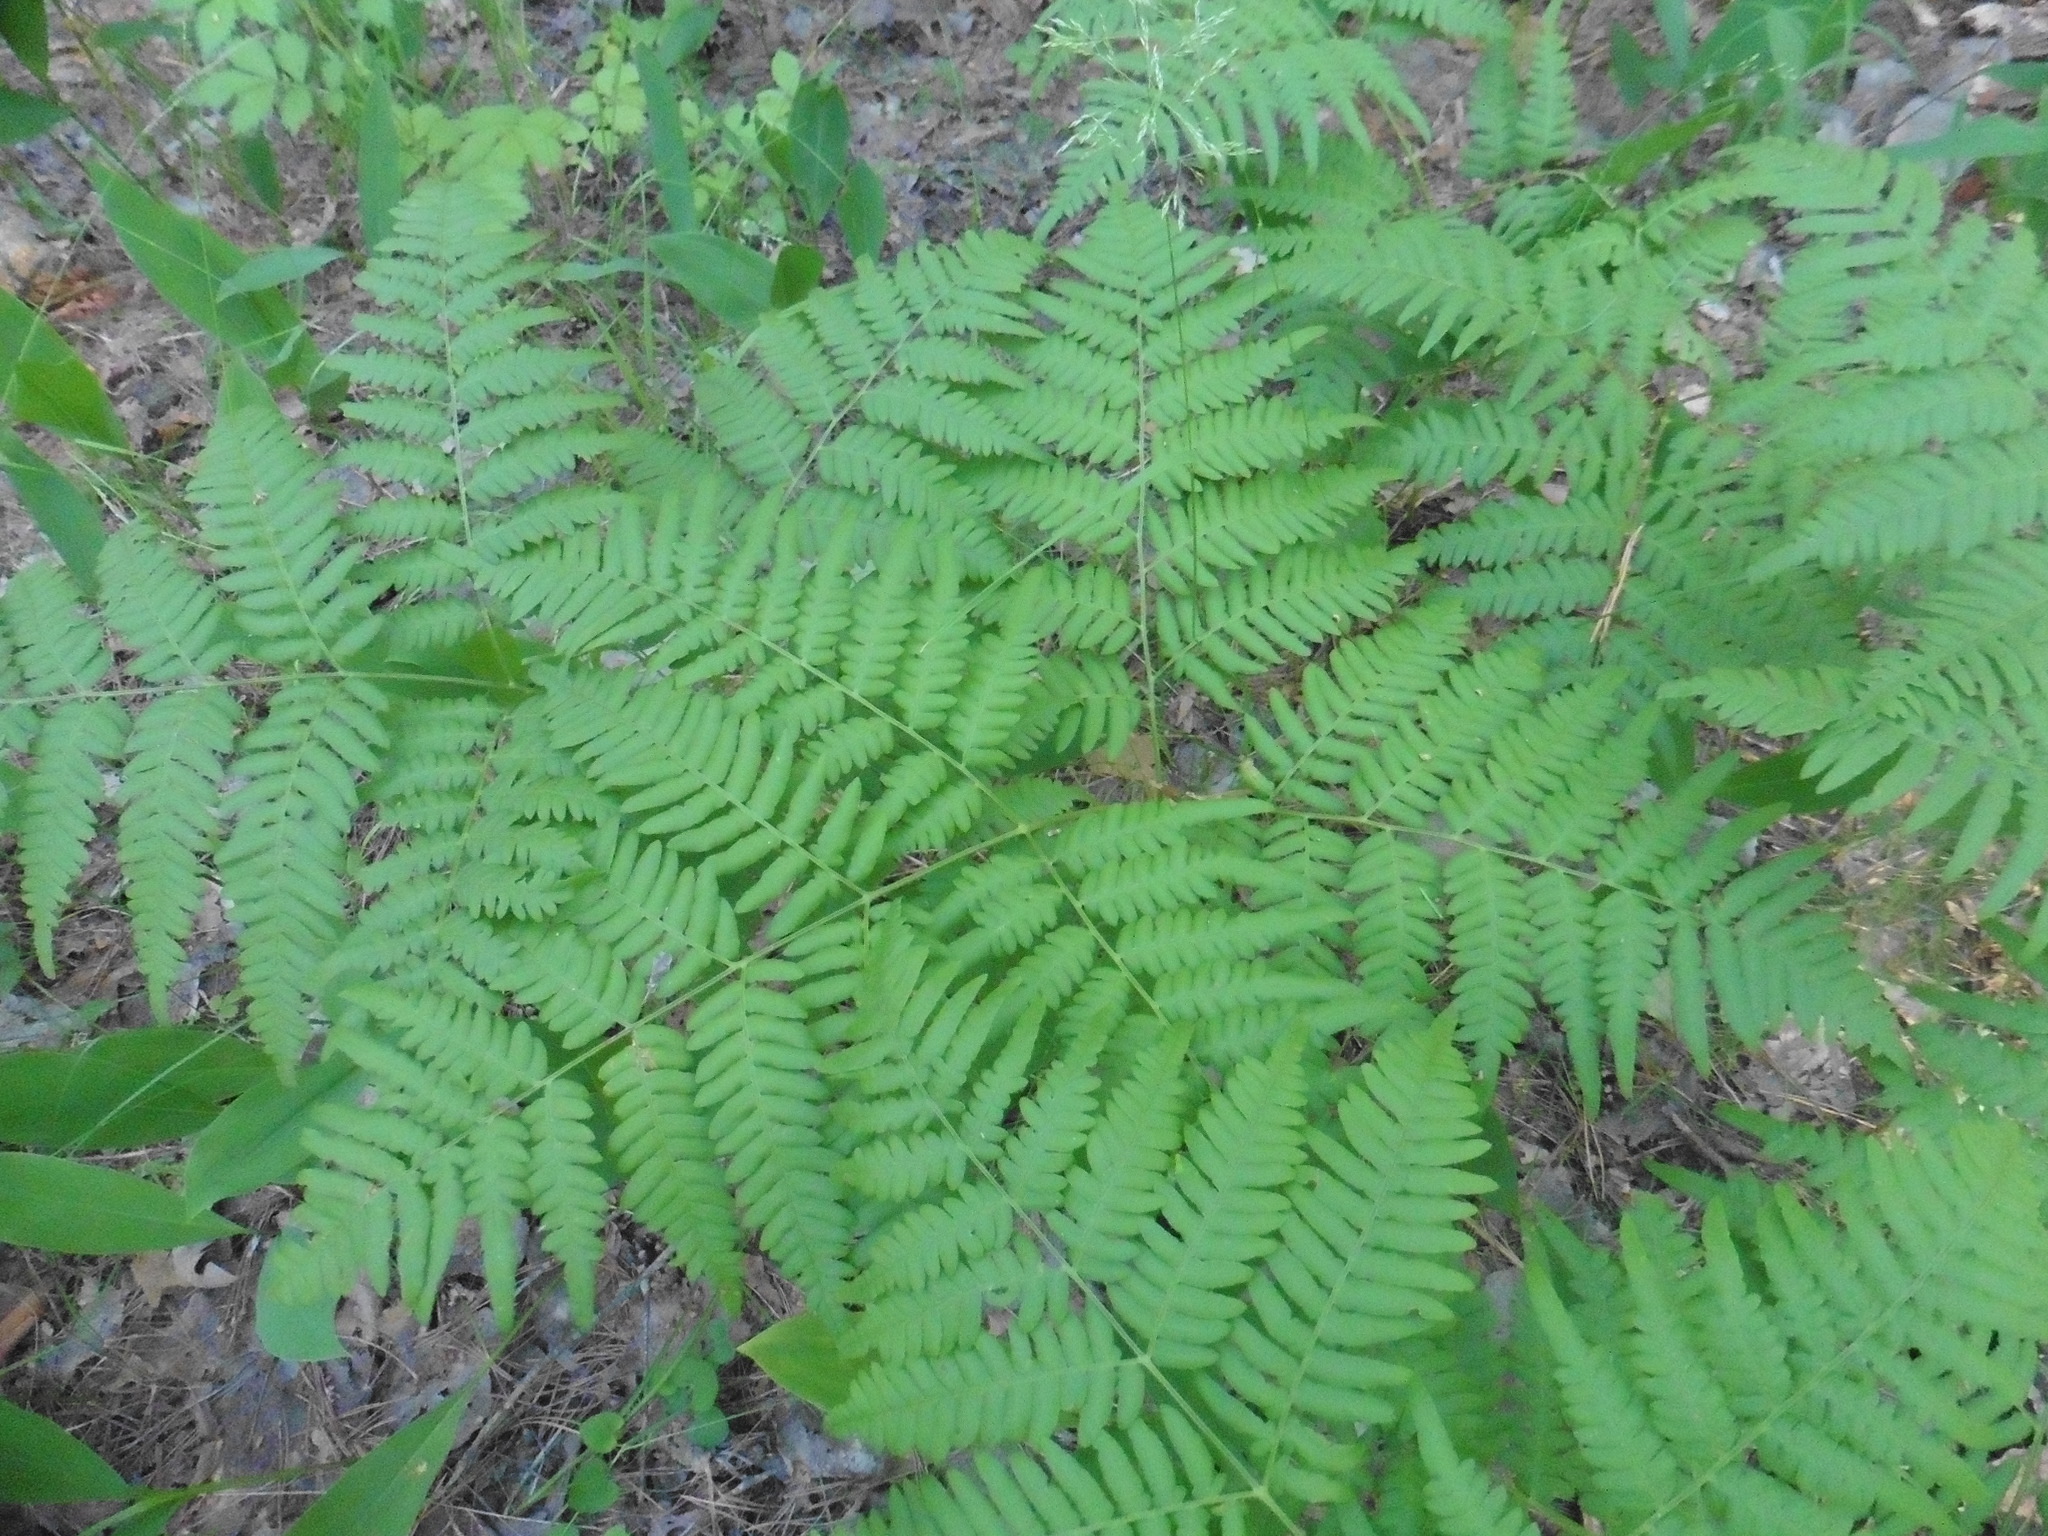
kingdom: Plantae
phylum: Tracheophyta
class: Polypodiopsida
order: Polypodiales
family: Dennstaedtiaceae
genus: Pteridium
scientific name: Pteridium aquilinum
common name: Bracken
